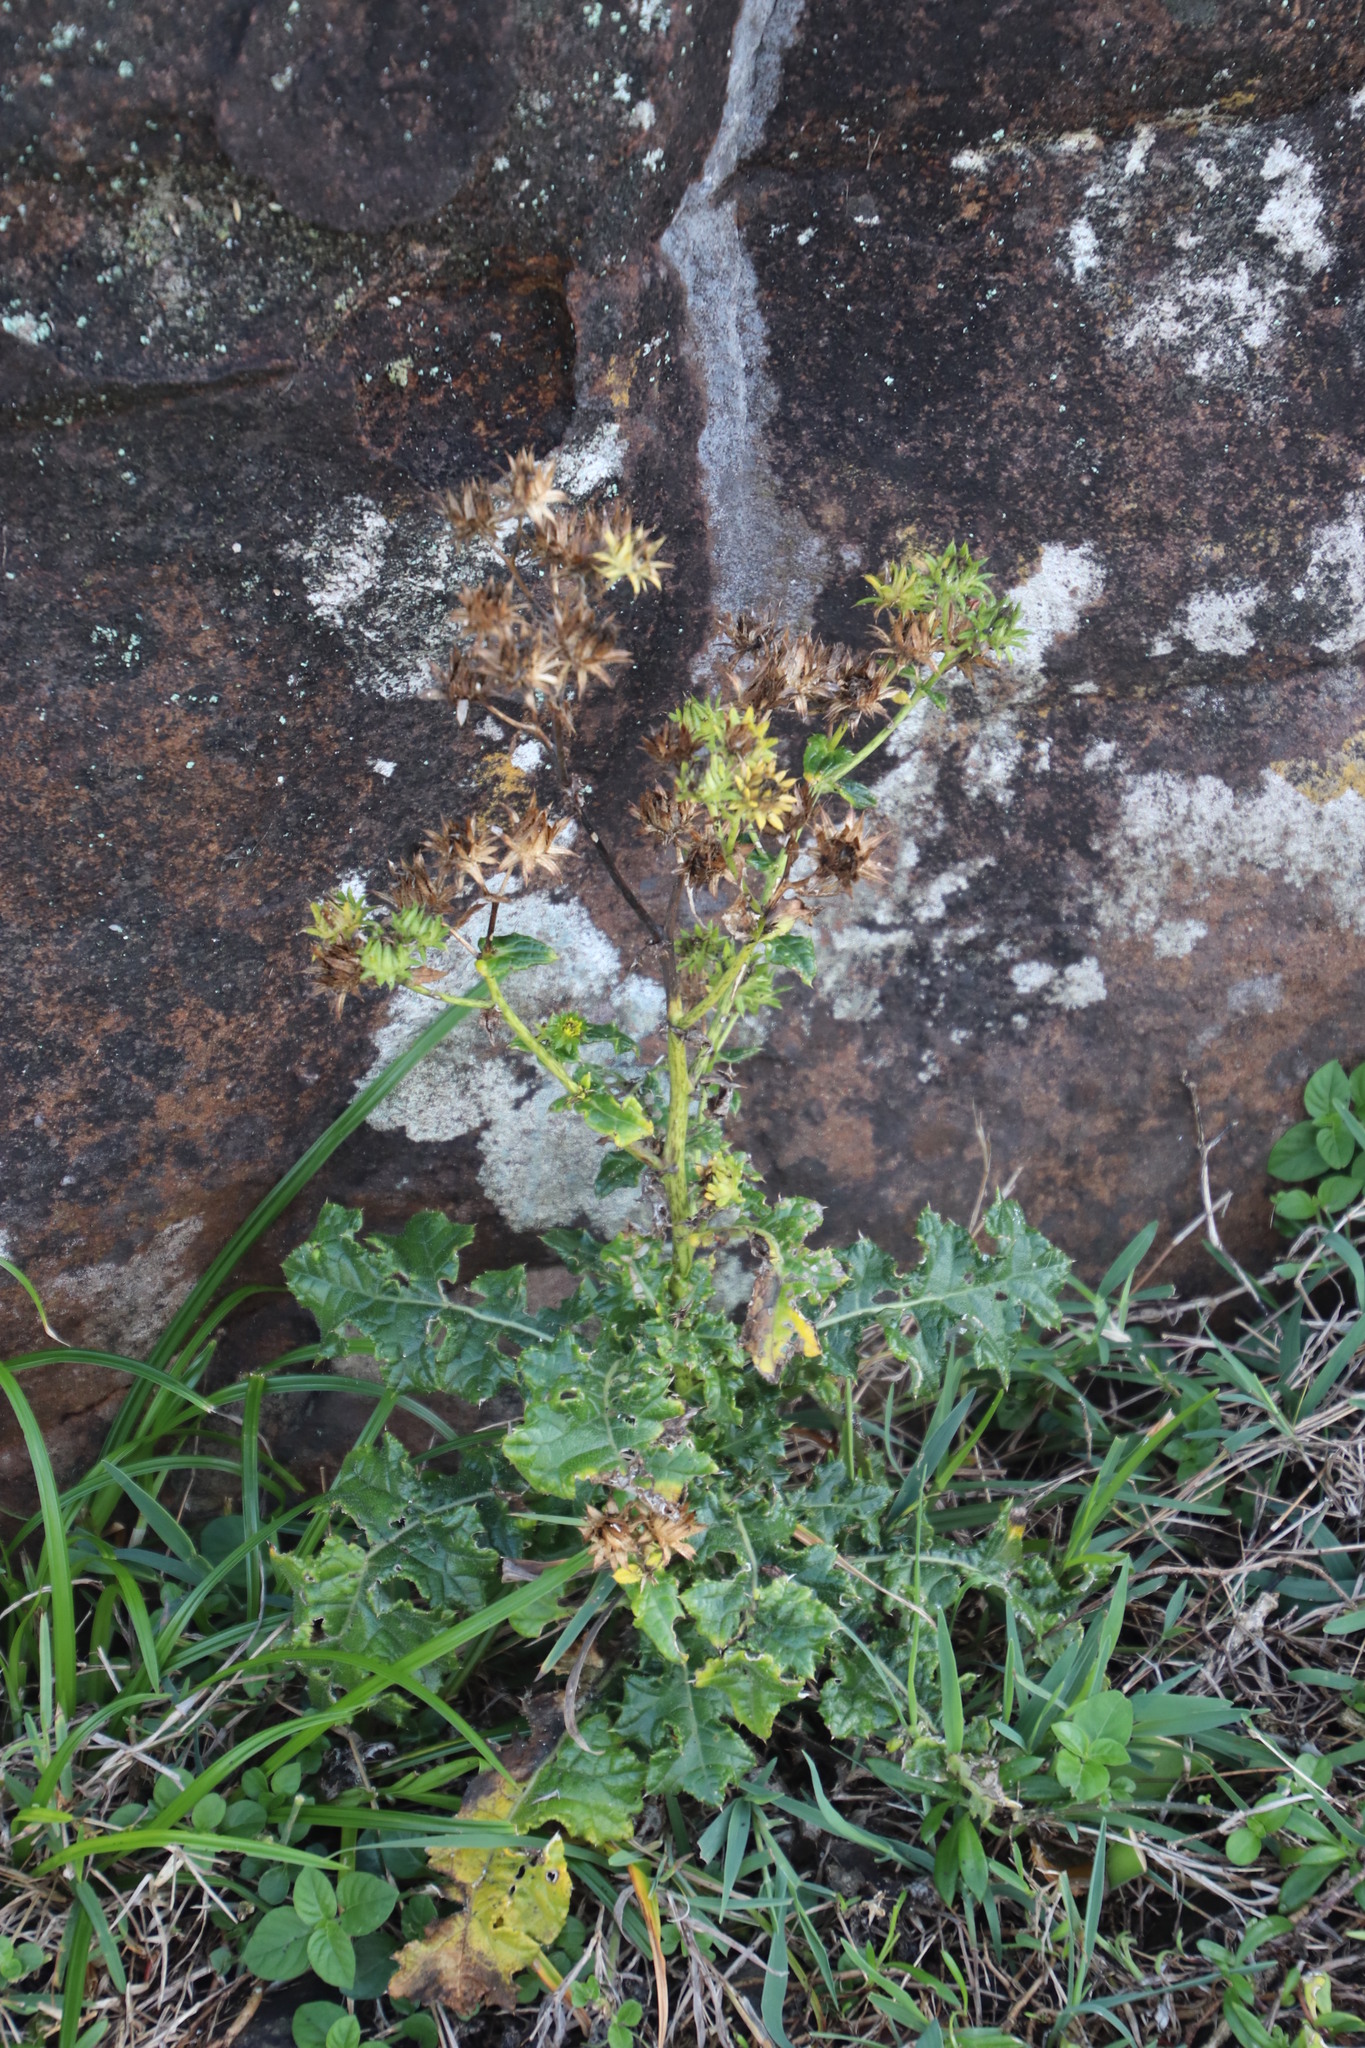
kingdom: Plantae
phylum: Tracheophyta
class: Magnoliopsida
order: Asterales
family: Asteraceae
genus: Berkheya
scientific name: Berkheya erysithales
